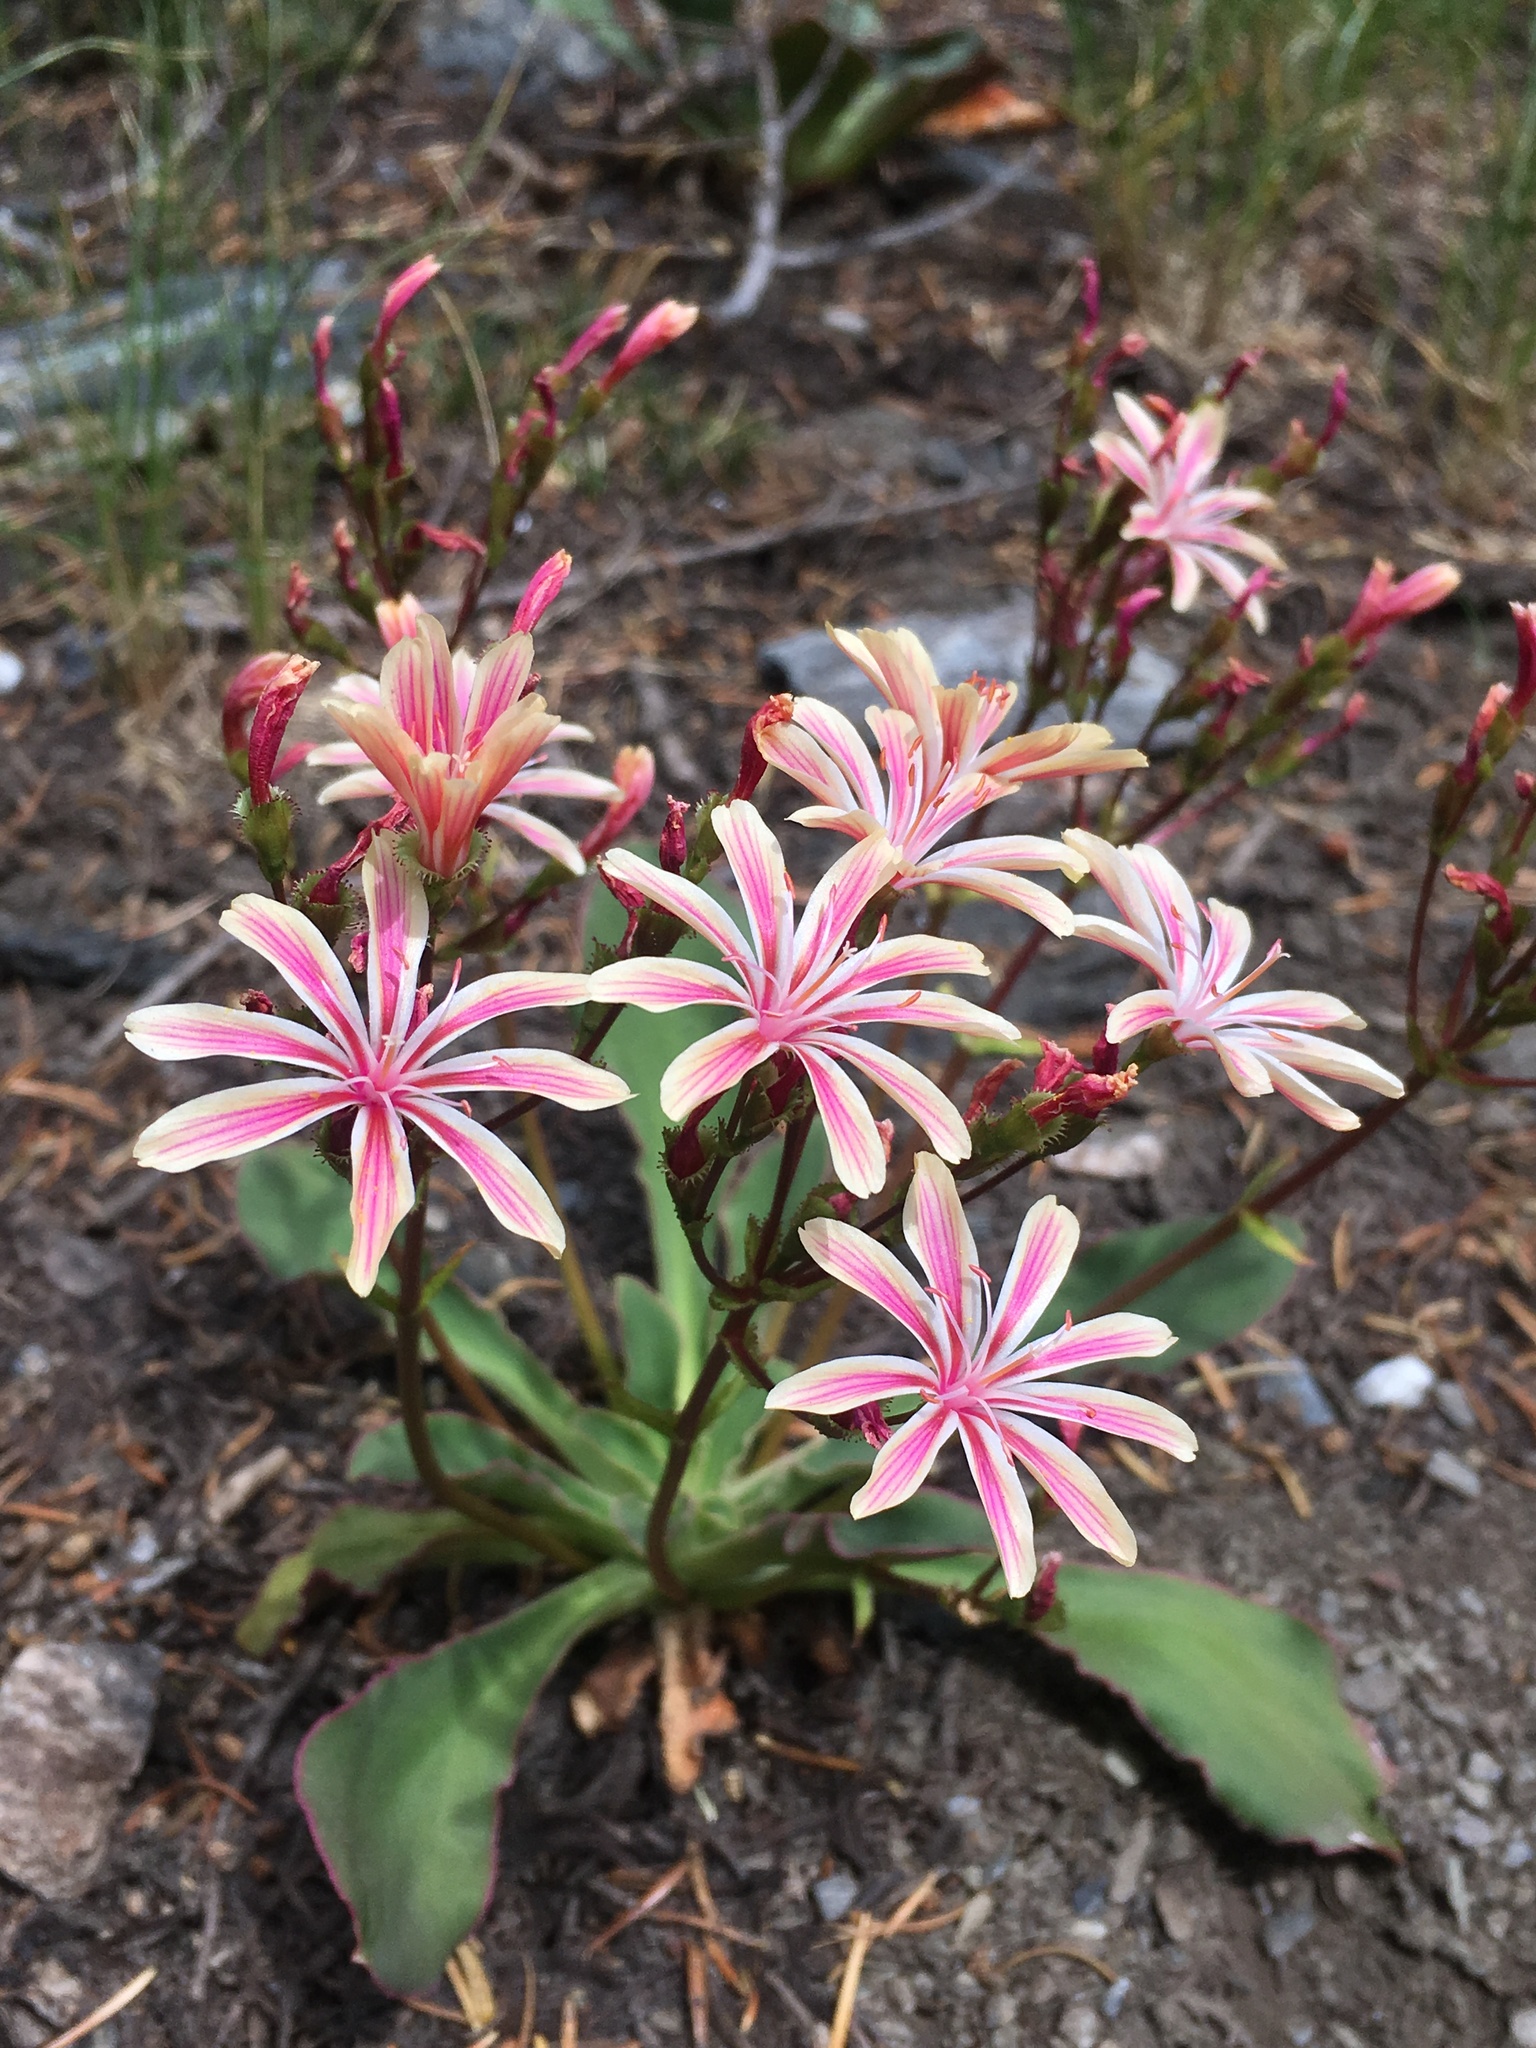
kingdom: Plantae
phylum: Tracheophyta
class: Magnoliopsida
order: Caryophyllales
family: Montiaceae
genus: Lewisia
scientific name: Lewisia cotyledon
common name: Siskiyou lewisia
